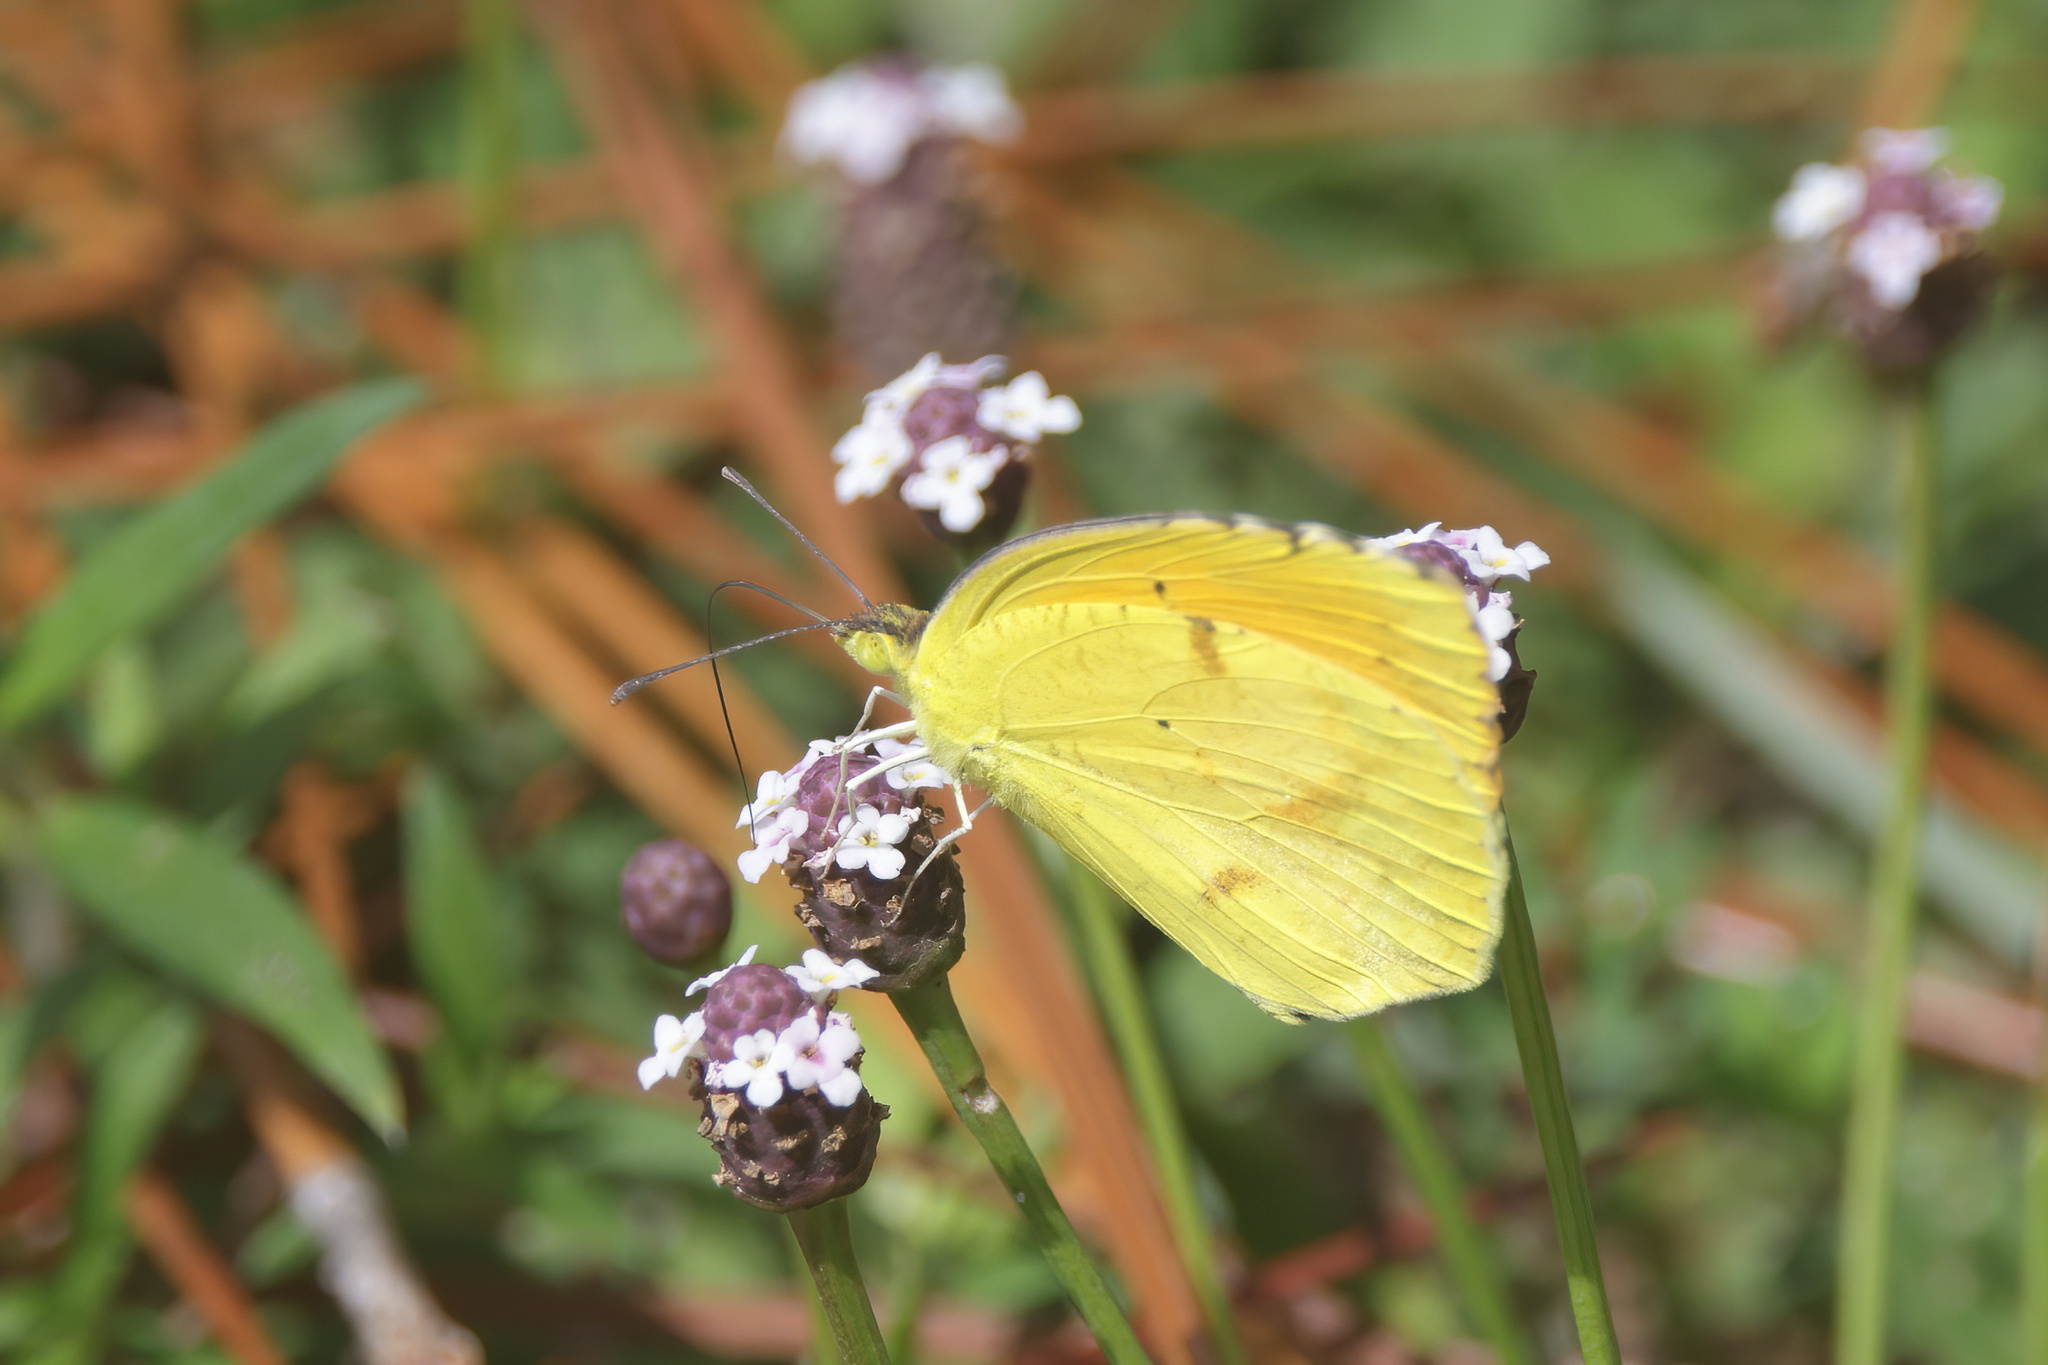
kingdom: Animalia
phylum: Arthropoda
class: Insecta
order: Lepidoptera
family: Pieridae
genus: Abaeis
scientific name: Abaeis nicippe
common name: Sleepy orange
